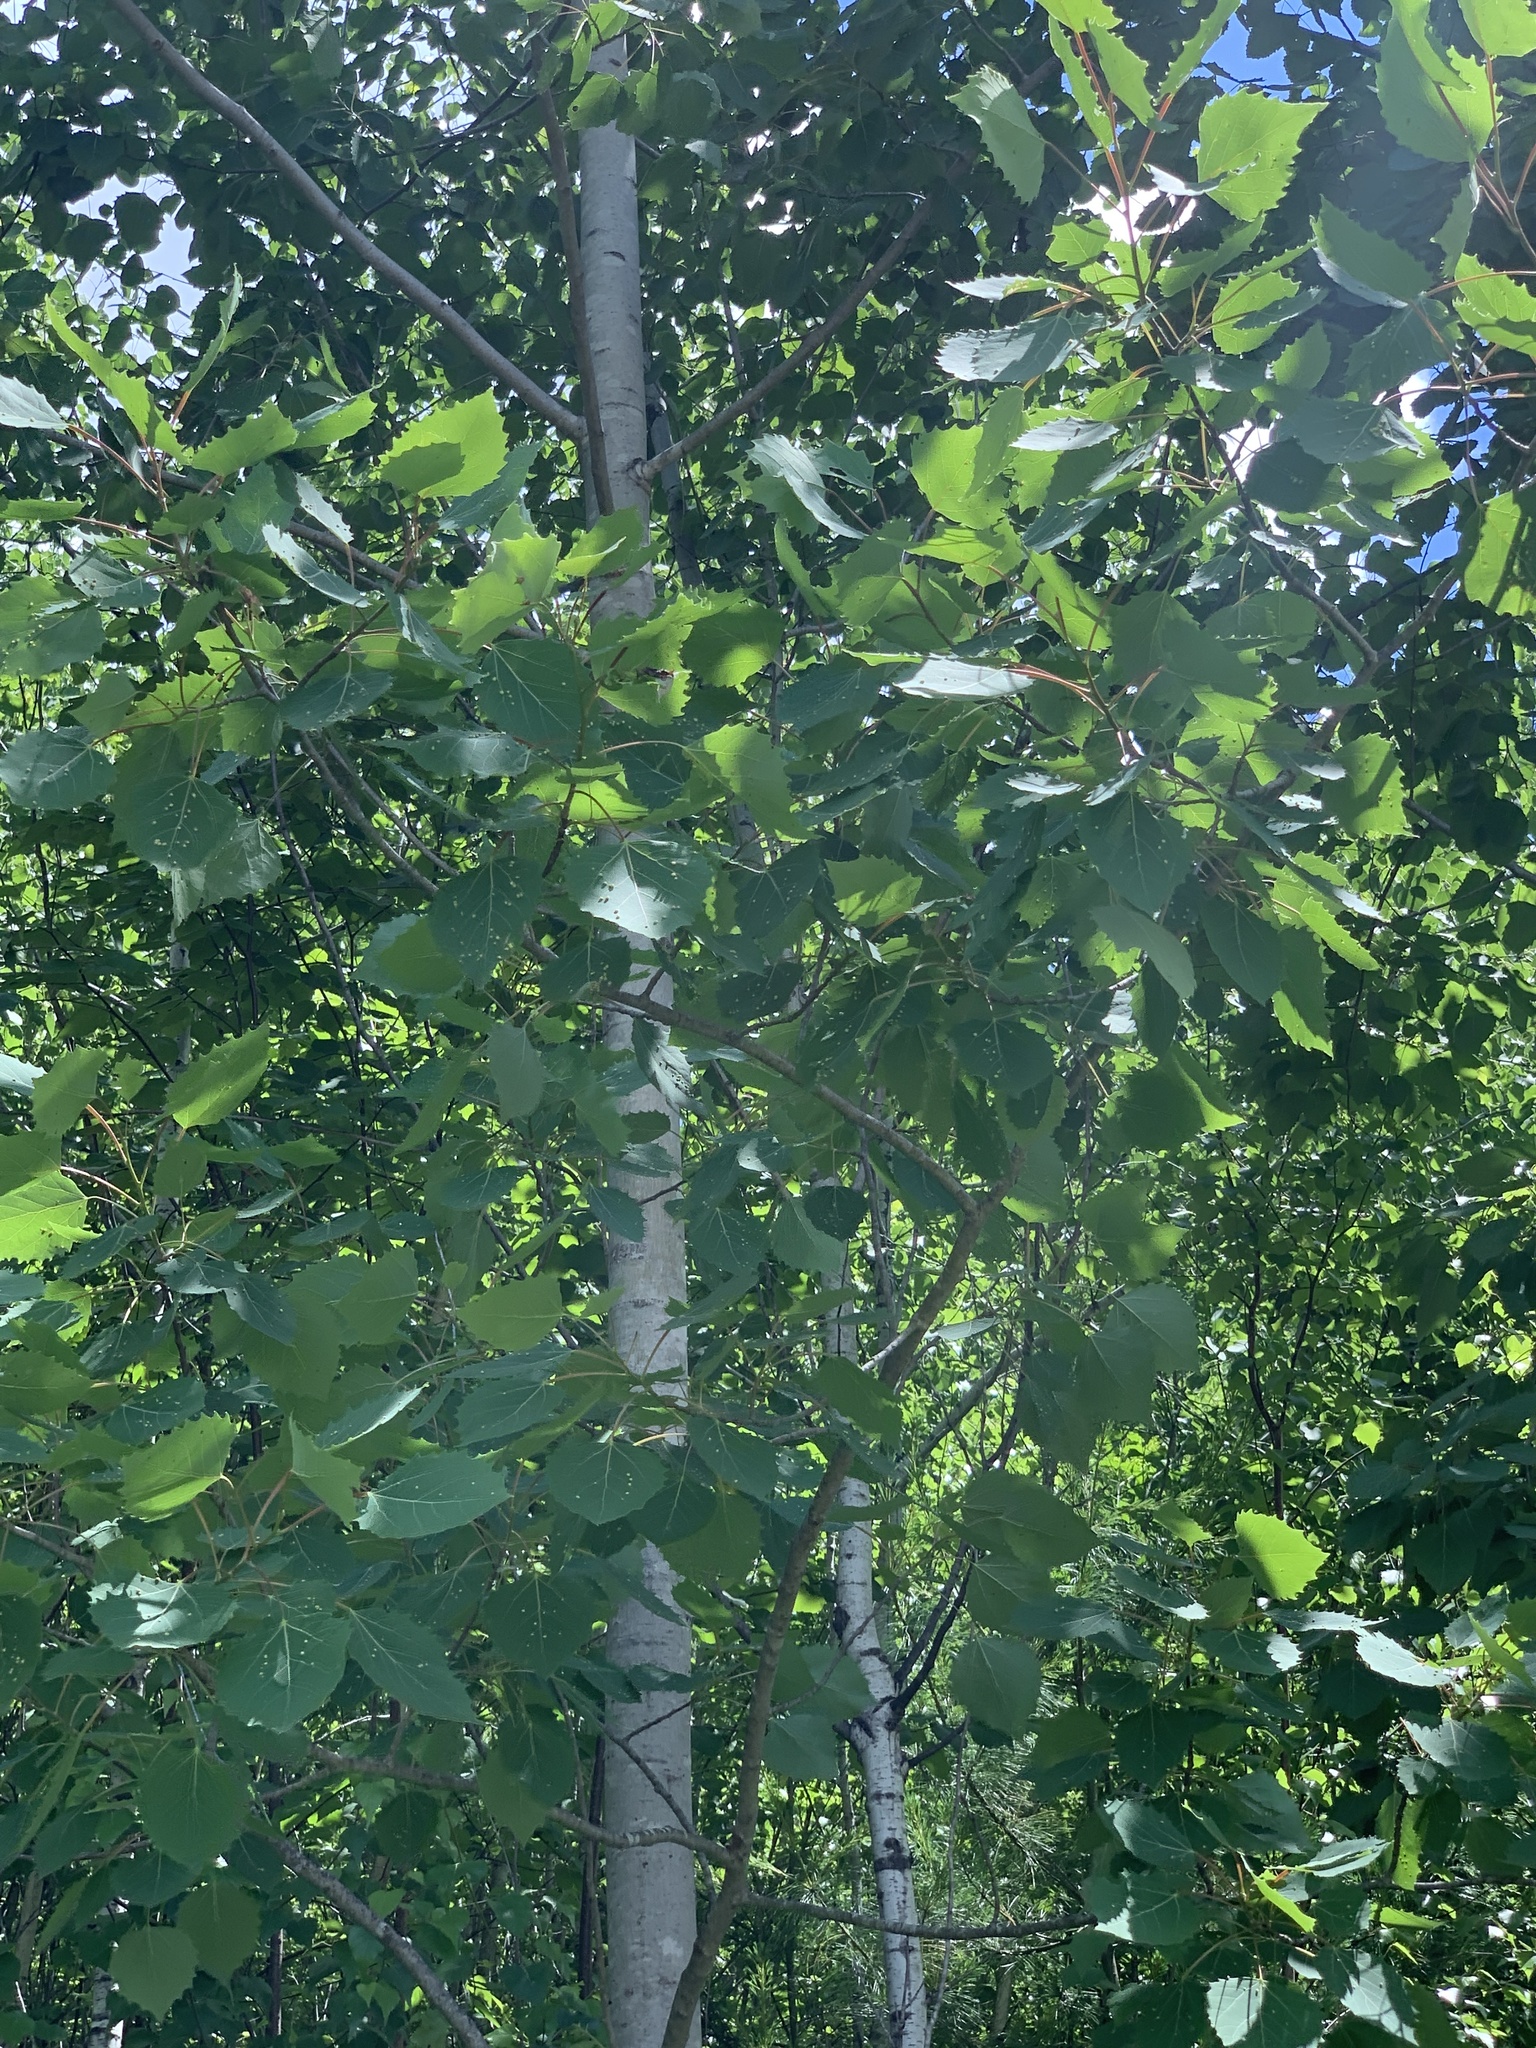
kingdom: Plantae
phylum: Tracheophyta
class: Magnoliopsida
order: Malpighiales
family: Salicaceae
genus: Populus
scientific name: Populus grandidentata
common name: Bigtooth aspen
